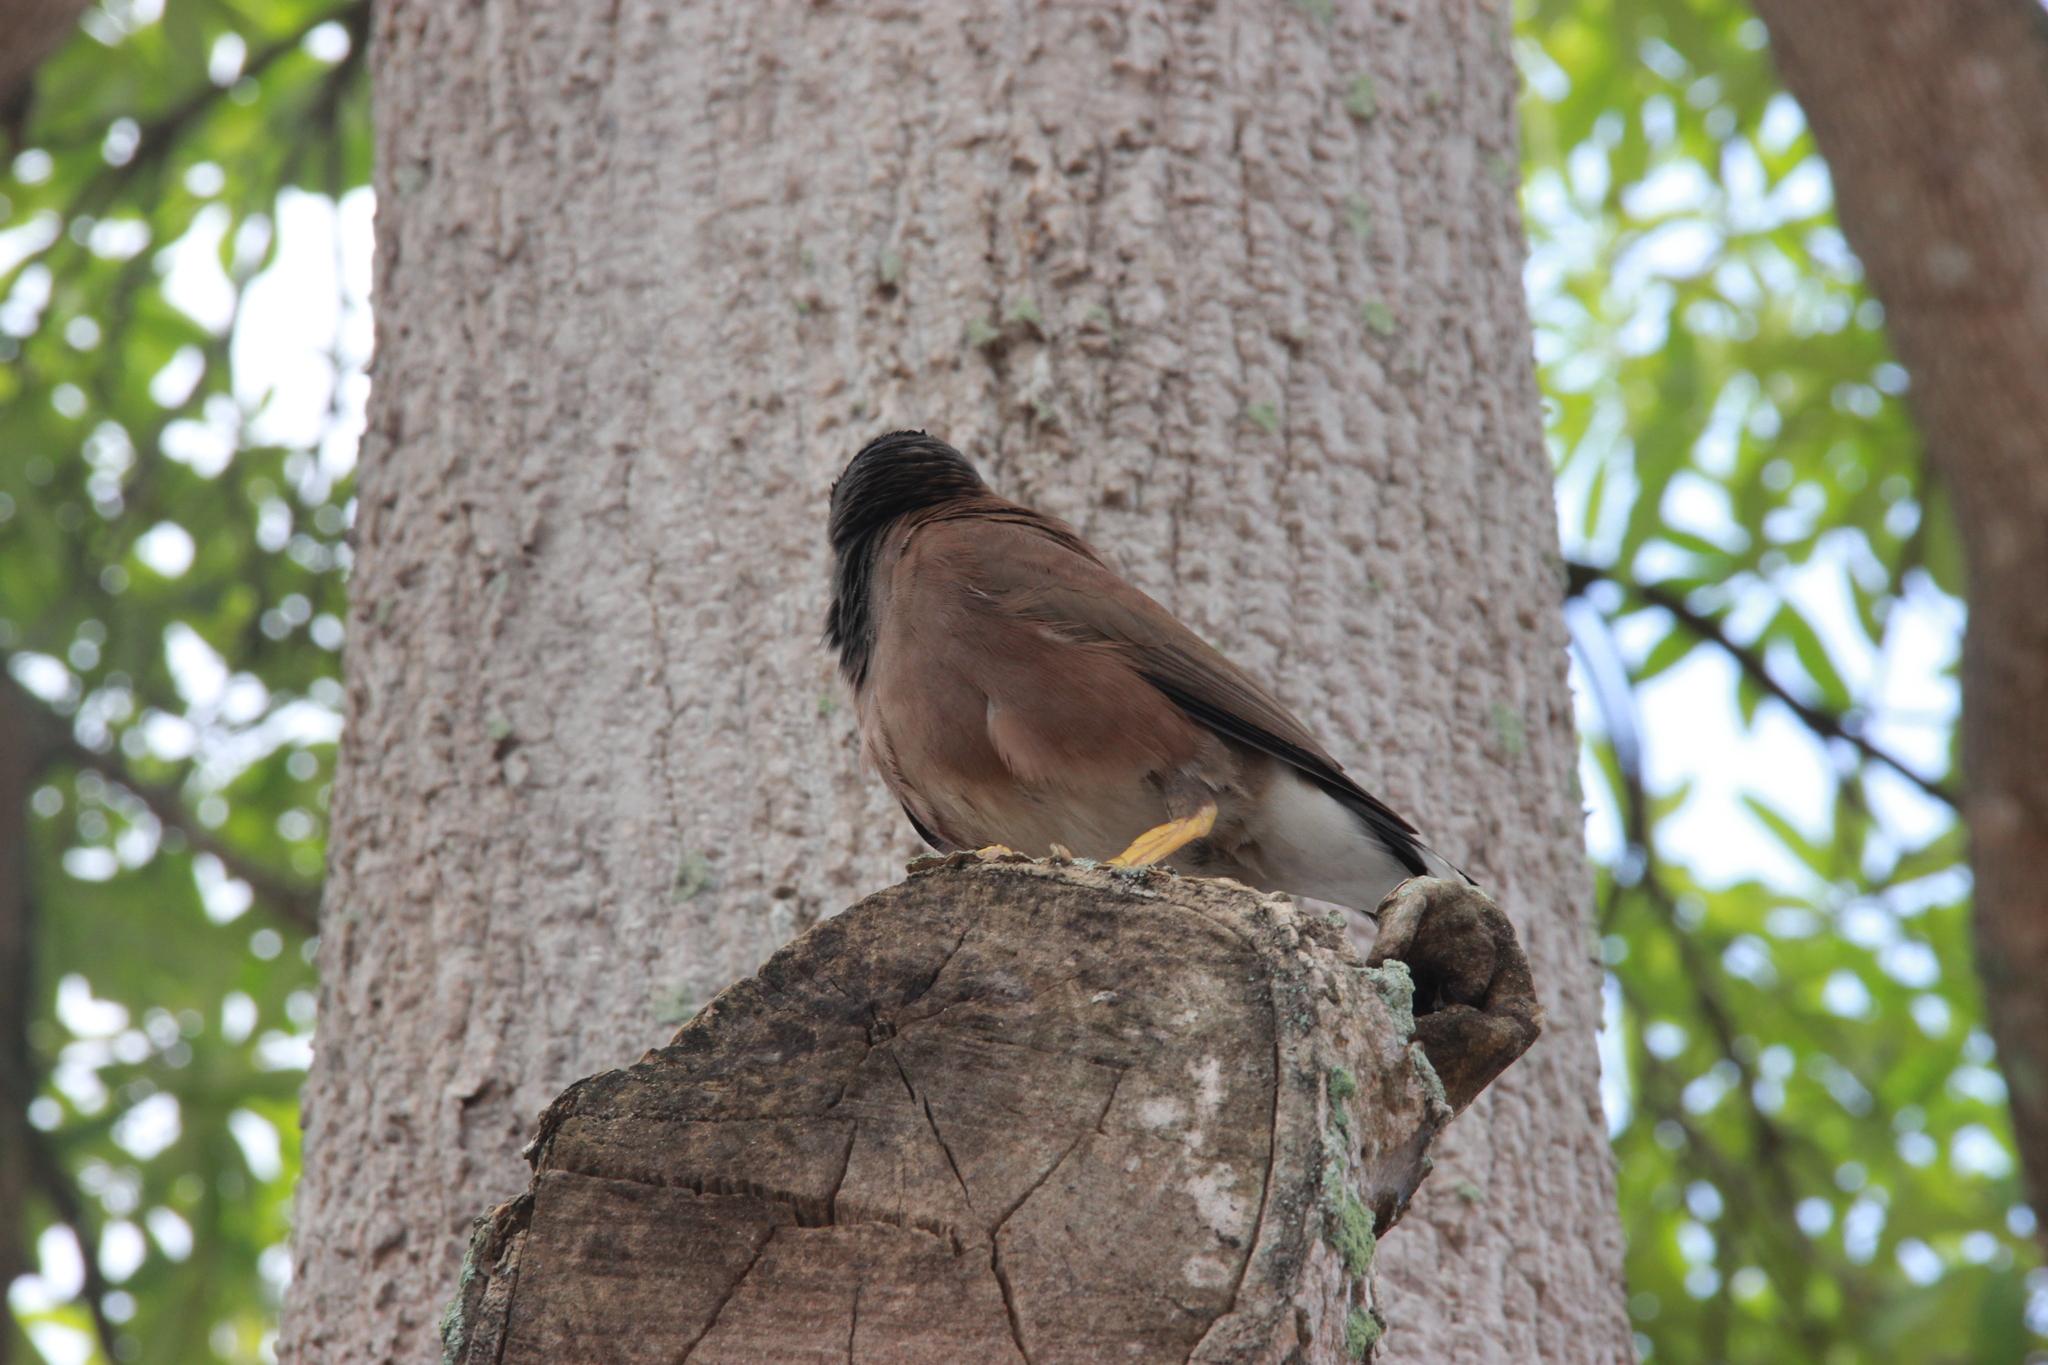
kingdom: Animalia
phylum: Chordata
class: Aves
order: Passeriformes
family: Sturnidae
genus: Acridotheres
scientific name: Acridotheres tristis
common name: Common myna
